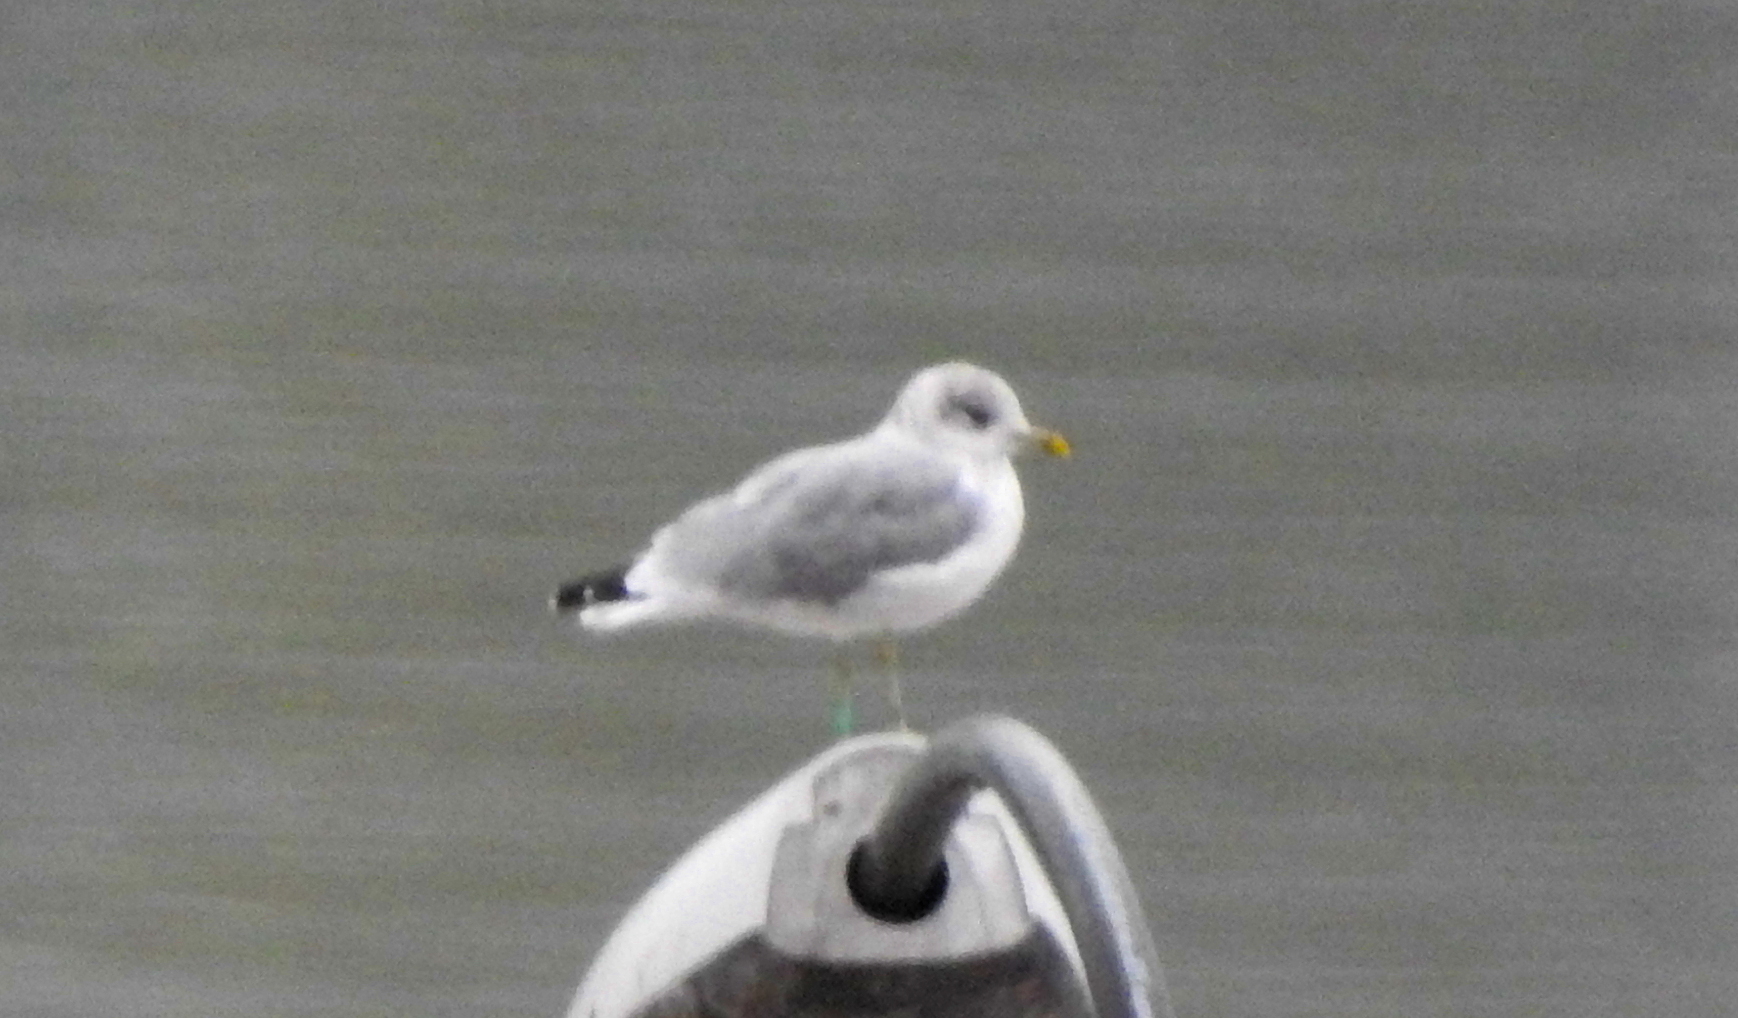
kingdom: Animalia
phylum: Chordata
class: Aves
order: Charadriiformes
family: Laridae
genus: Larus
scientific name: Larus canus
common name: Mew gull
